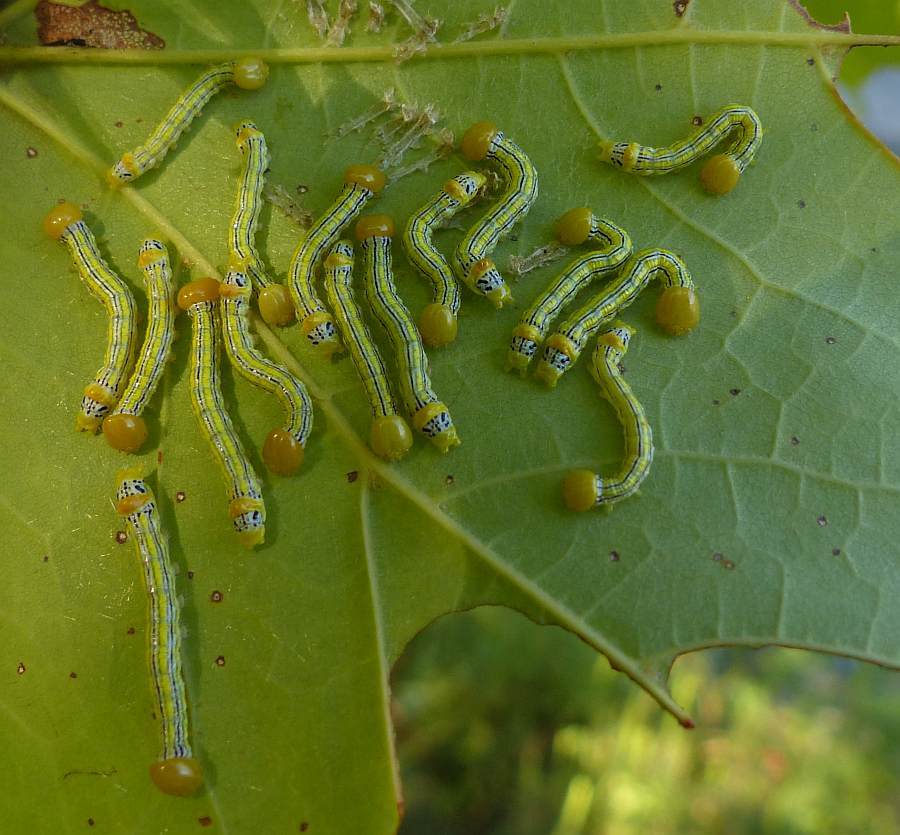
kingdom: Animalia
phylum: Arthropoda
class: Insecta
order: Lepidoptera
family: Notodontidae
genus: Symmerista
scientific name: Symmerista leucitys
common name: Orange-humped mapleworm
